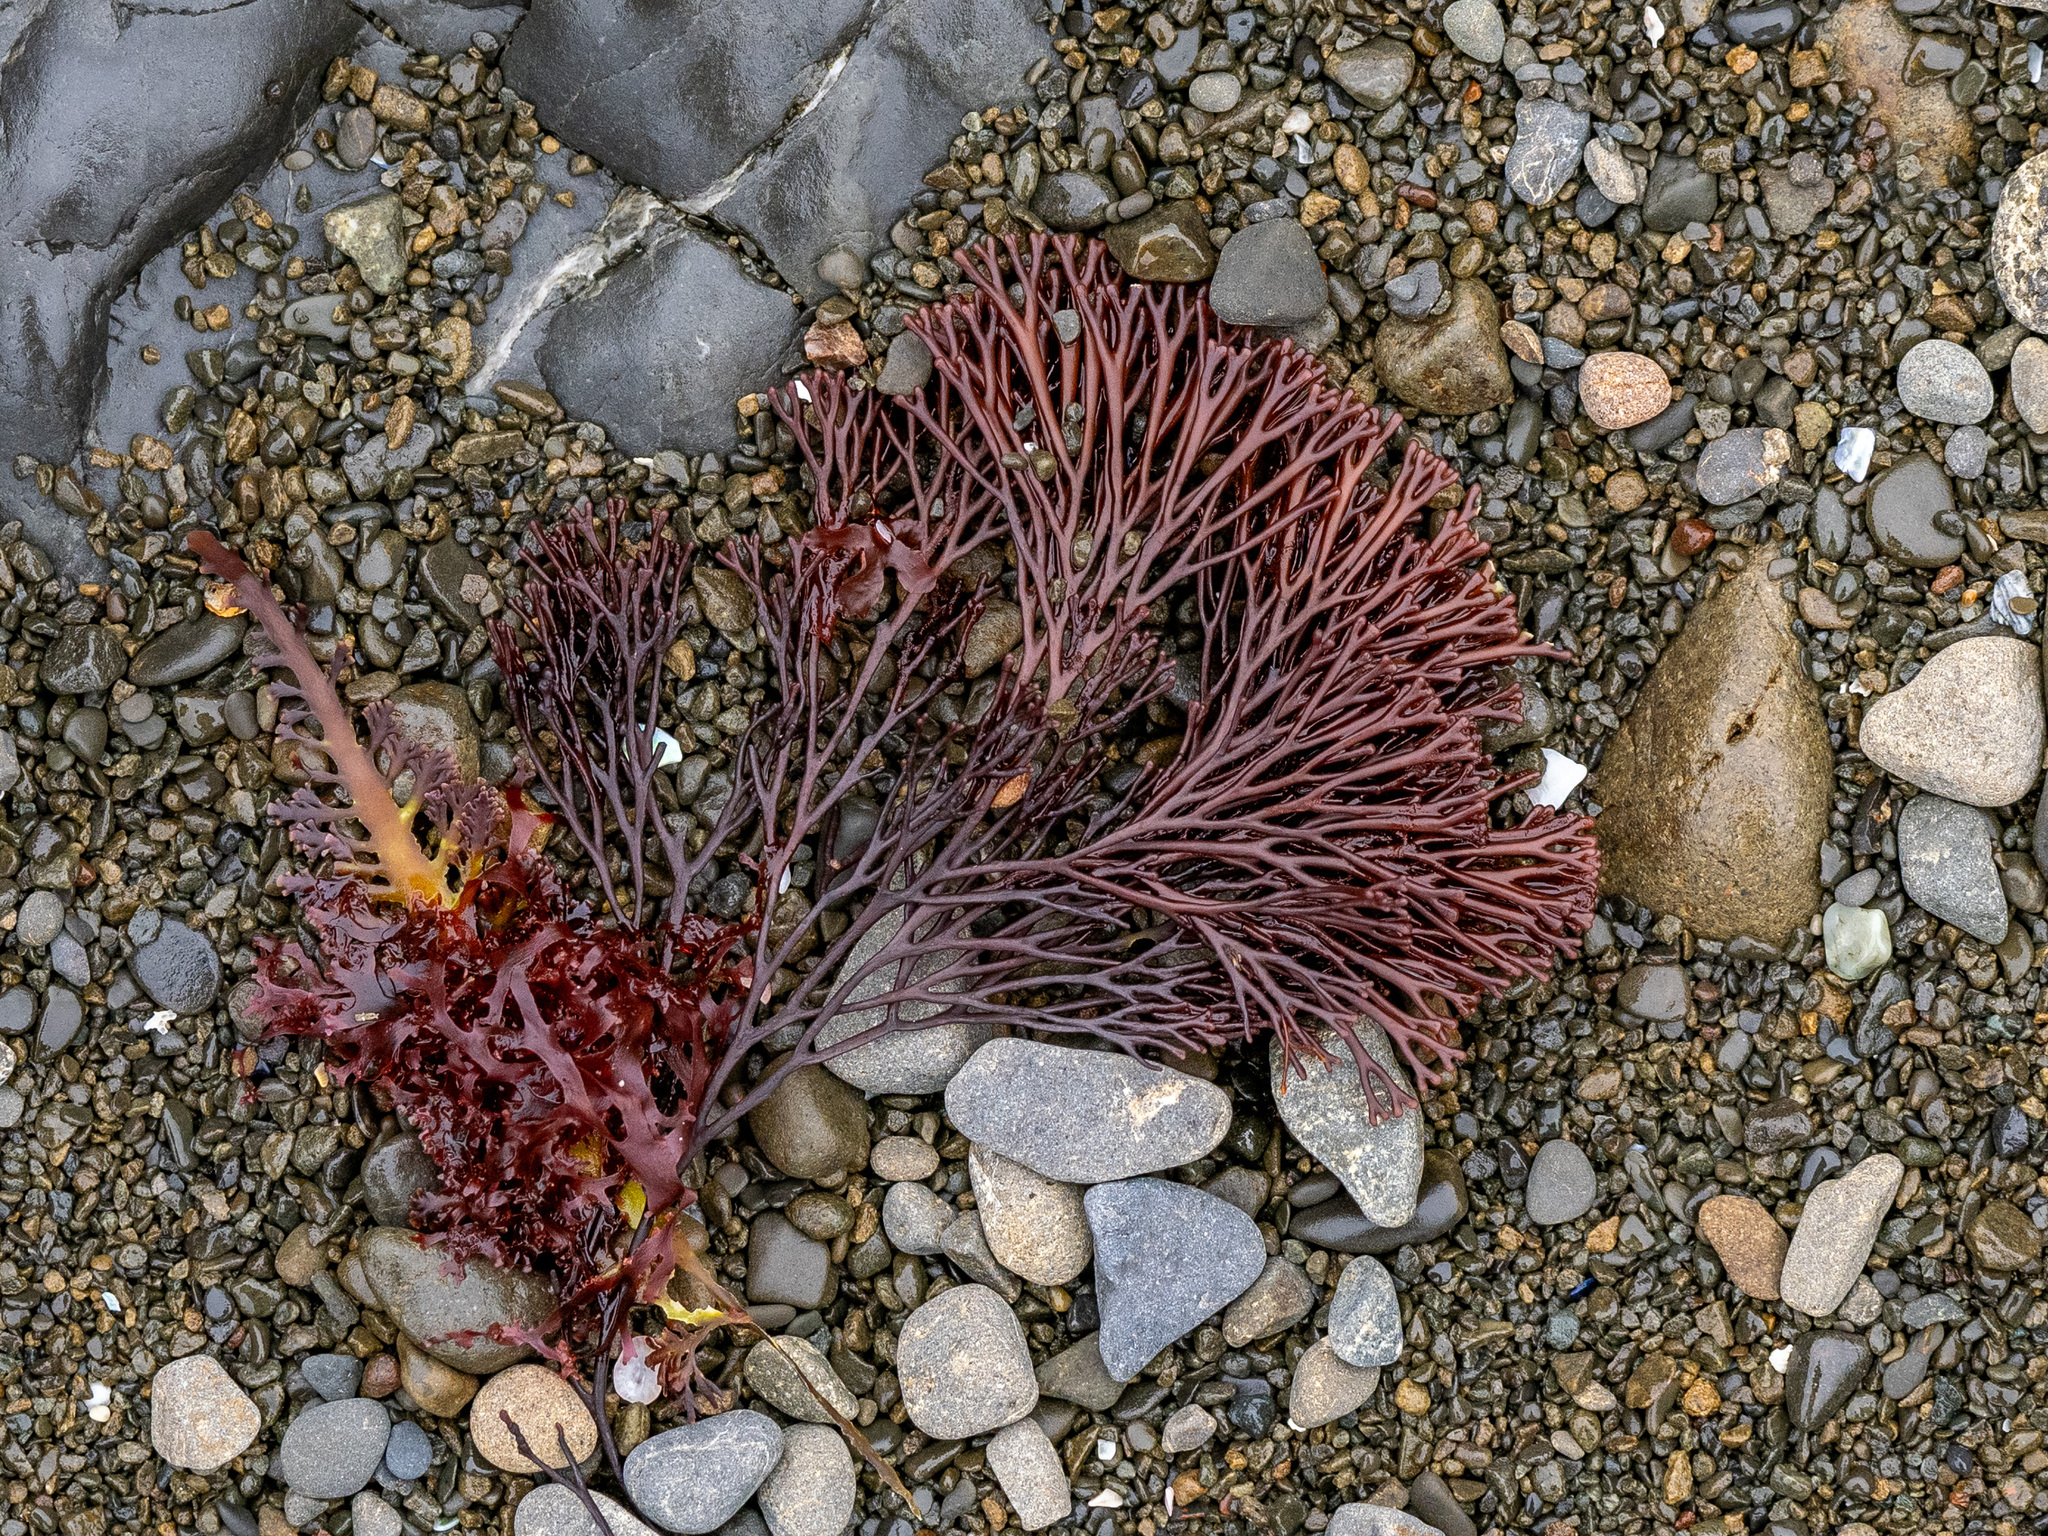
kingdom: Plantae
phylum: Rhodophyta
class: Florideophyceae
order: Gracilariales
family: Gracilariaceae
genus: Melanthalia
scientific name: Melanthalia abscissa
